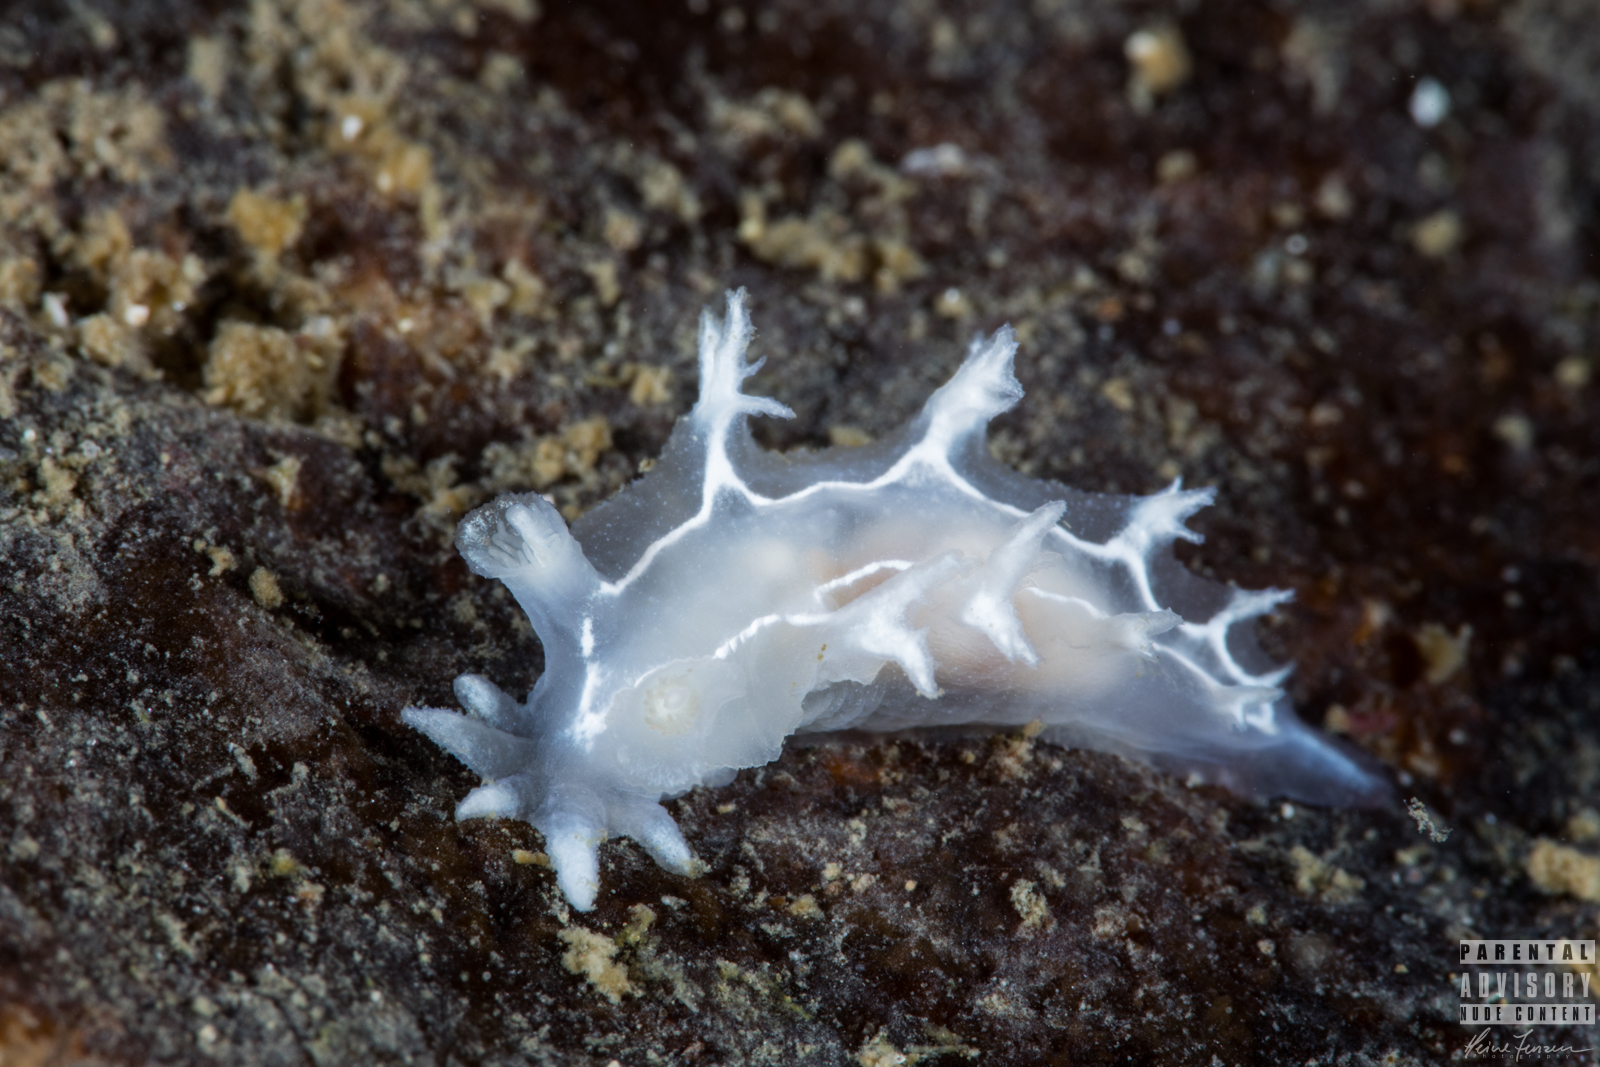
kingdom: Animalia
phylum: Mollusca
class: Gastropoda
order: Nudibranchia
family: Tritoniidae
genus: Duvaucelia
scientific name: Duvaucelia lineata
